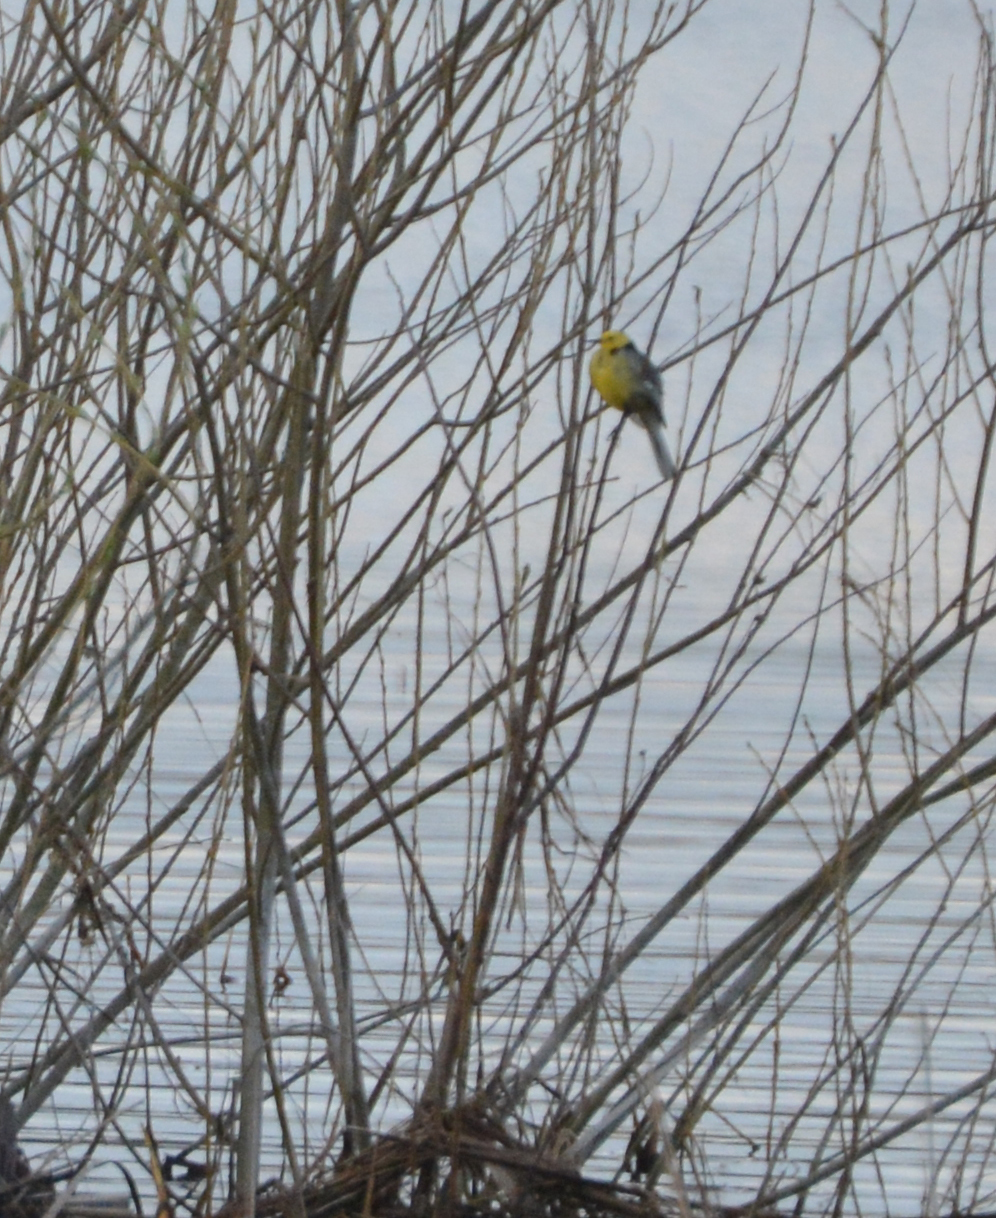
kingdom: Animalia
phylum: Chordata
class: Aves
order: Passeriformes
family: Motacillidae
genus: Motacilla
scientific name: Motacilla citreola
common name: Citrine wagtail
